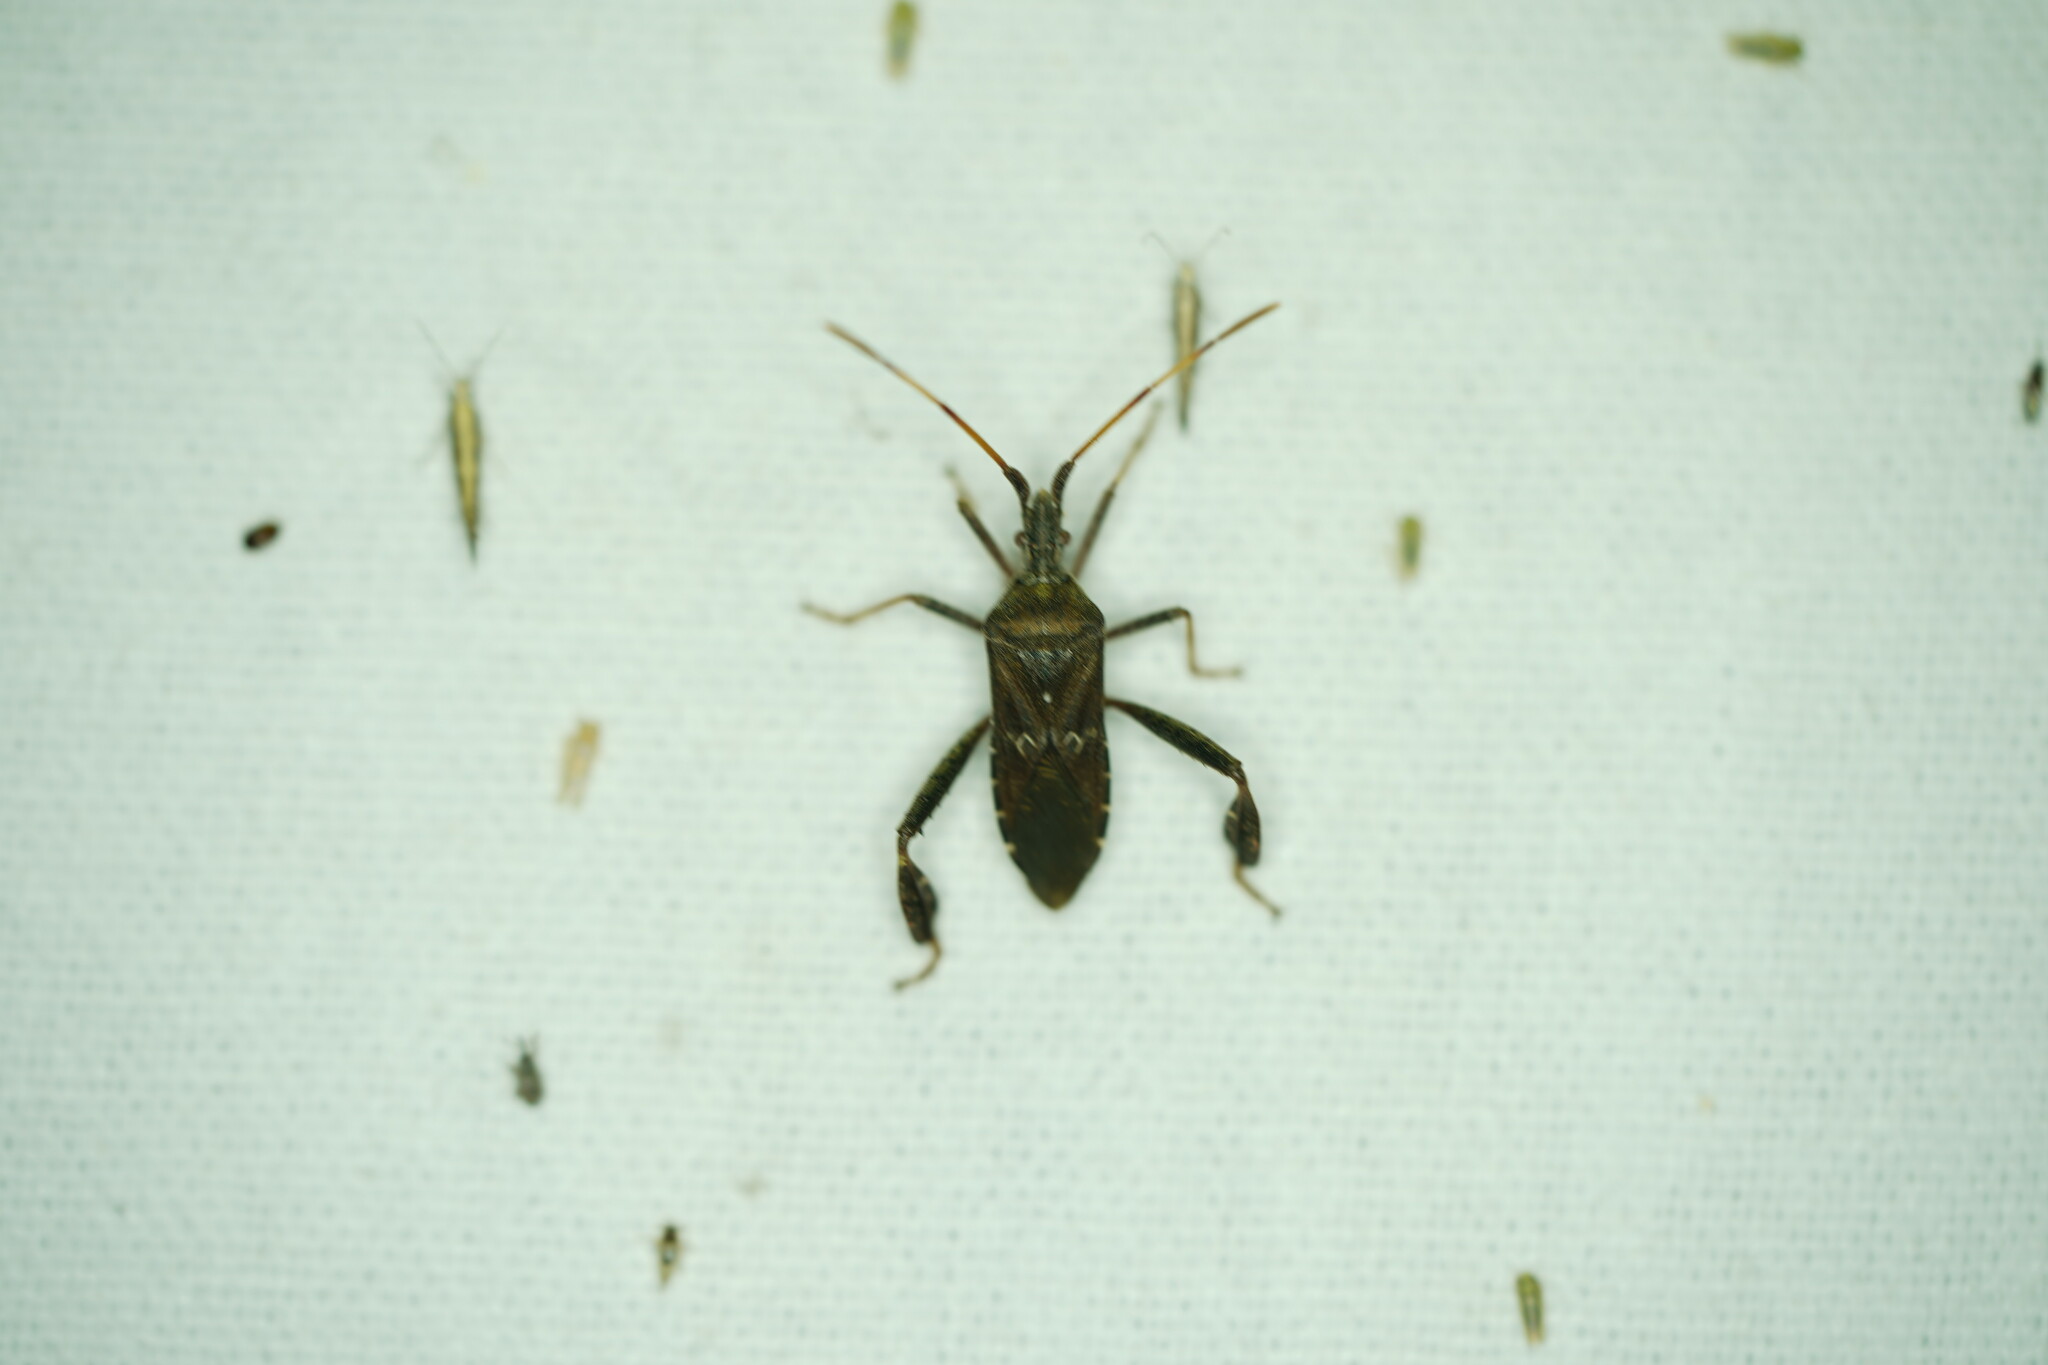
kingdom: Animalia
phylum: Arthropoda
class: Insecta
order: Hemiptera
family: Coreidae
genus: Leptoglossus
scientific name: Leptoglossus corculus
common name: Southern pine seed bug
